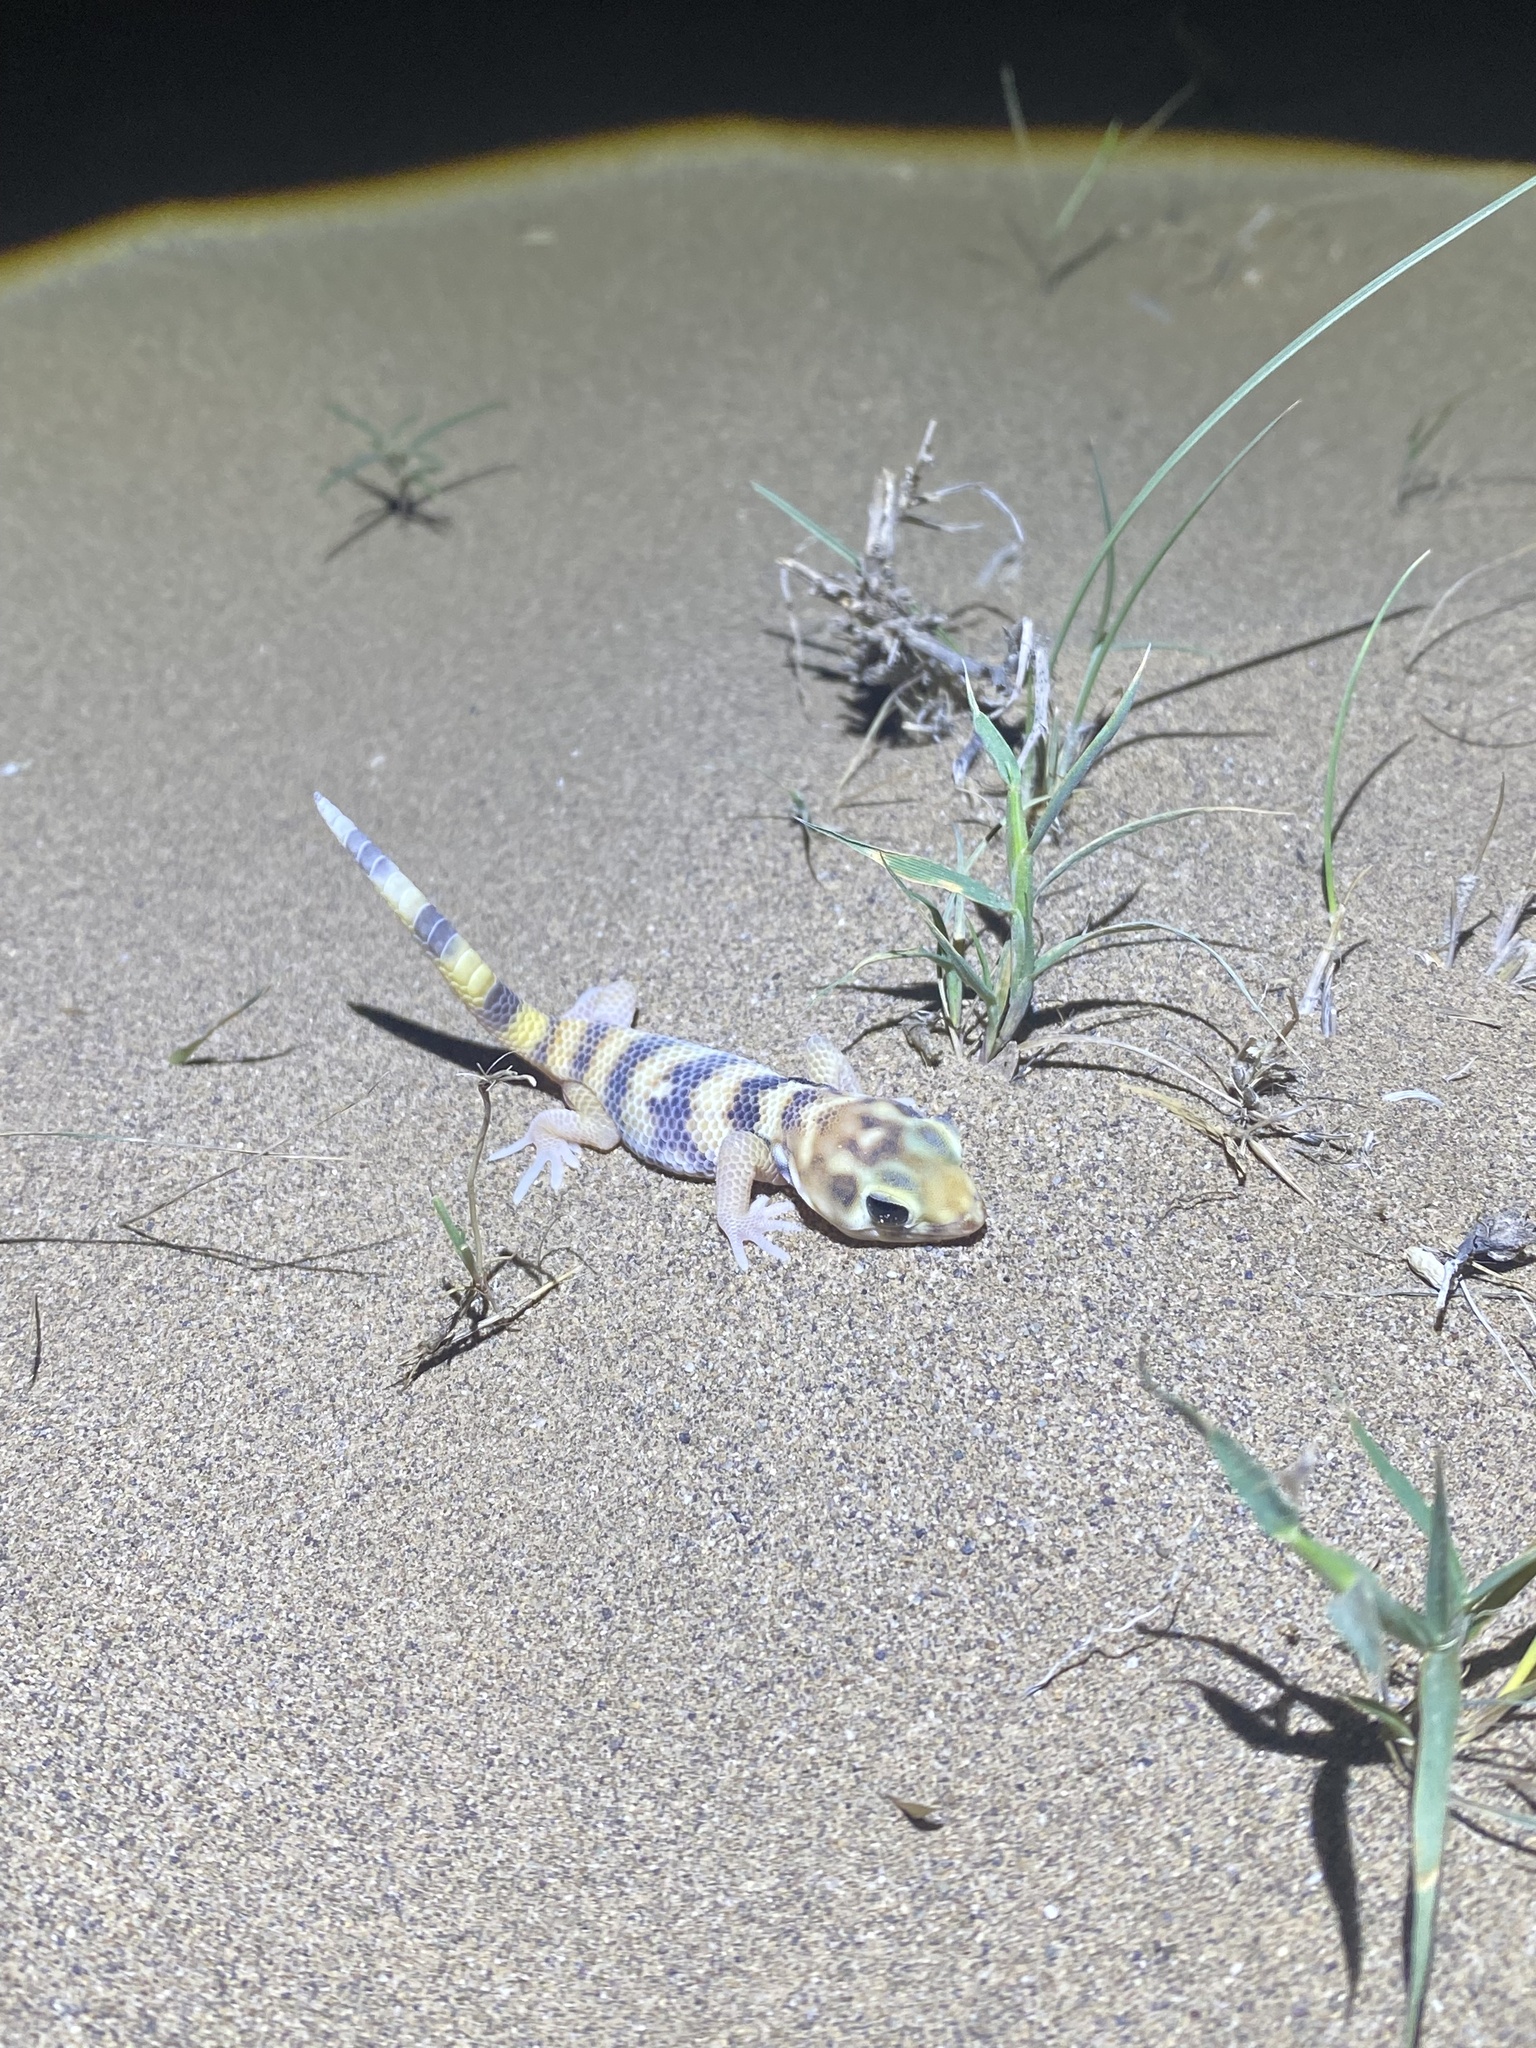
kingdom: Animalia
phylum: Chordata
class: Squamata
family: Sphaerodactylidae
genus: Teratoscincus
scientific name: Teratoscincus keyserlingii
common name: Frog-eyed gecko
